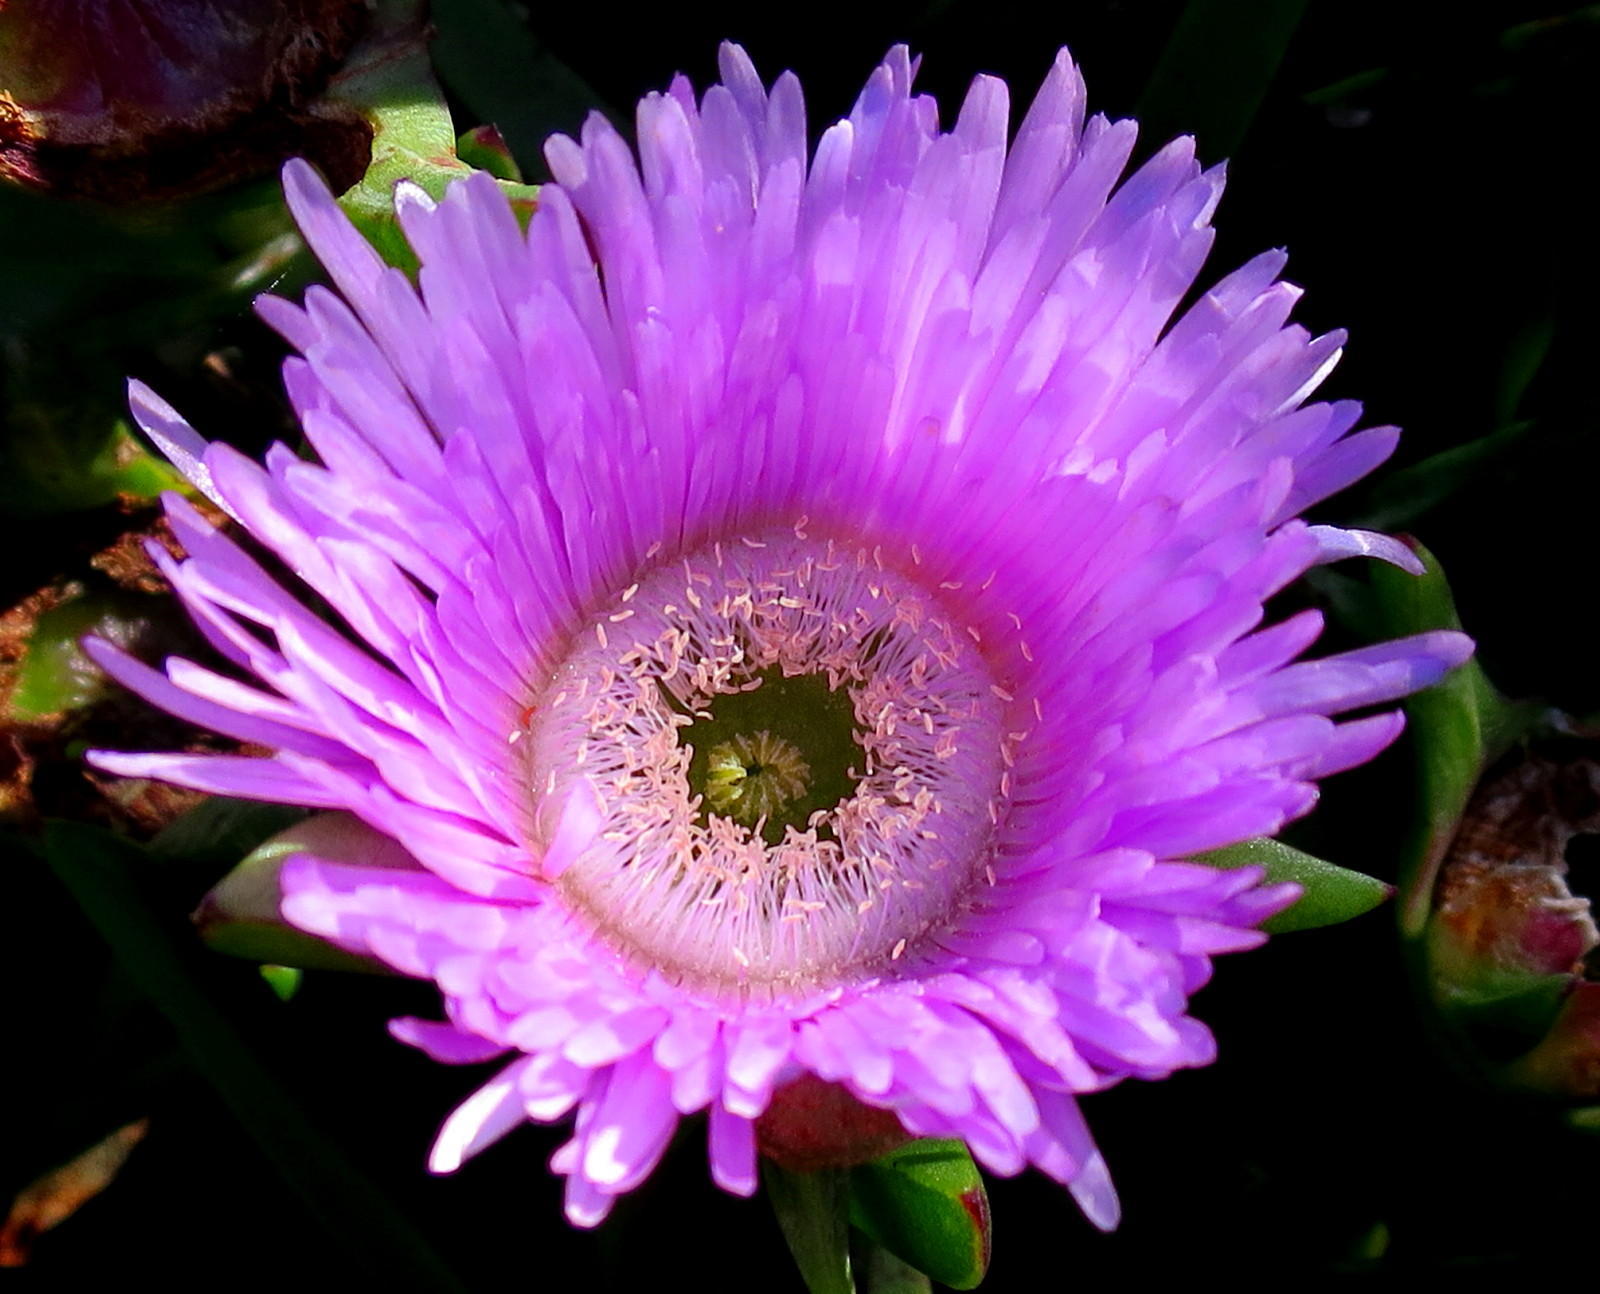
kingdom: Plantae
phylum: Tracheophyta
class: Magnoliopsida
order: Caryophyllales
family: Aizoaceae
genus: Carpobrotus
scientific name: Carpobrotus mellei
